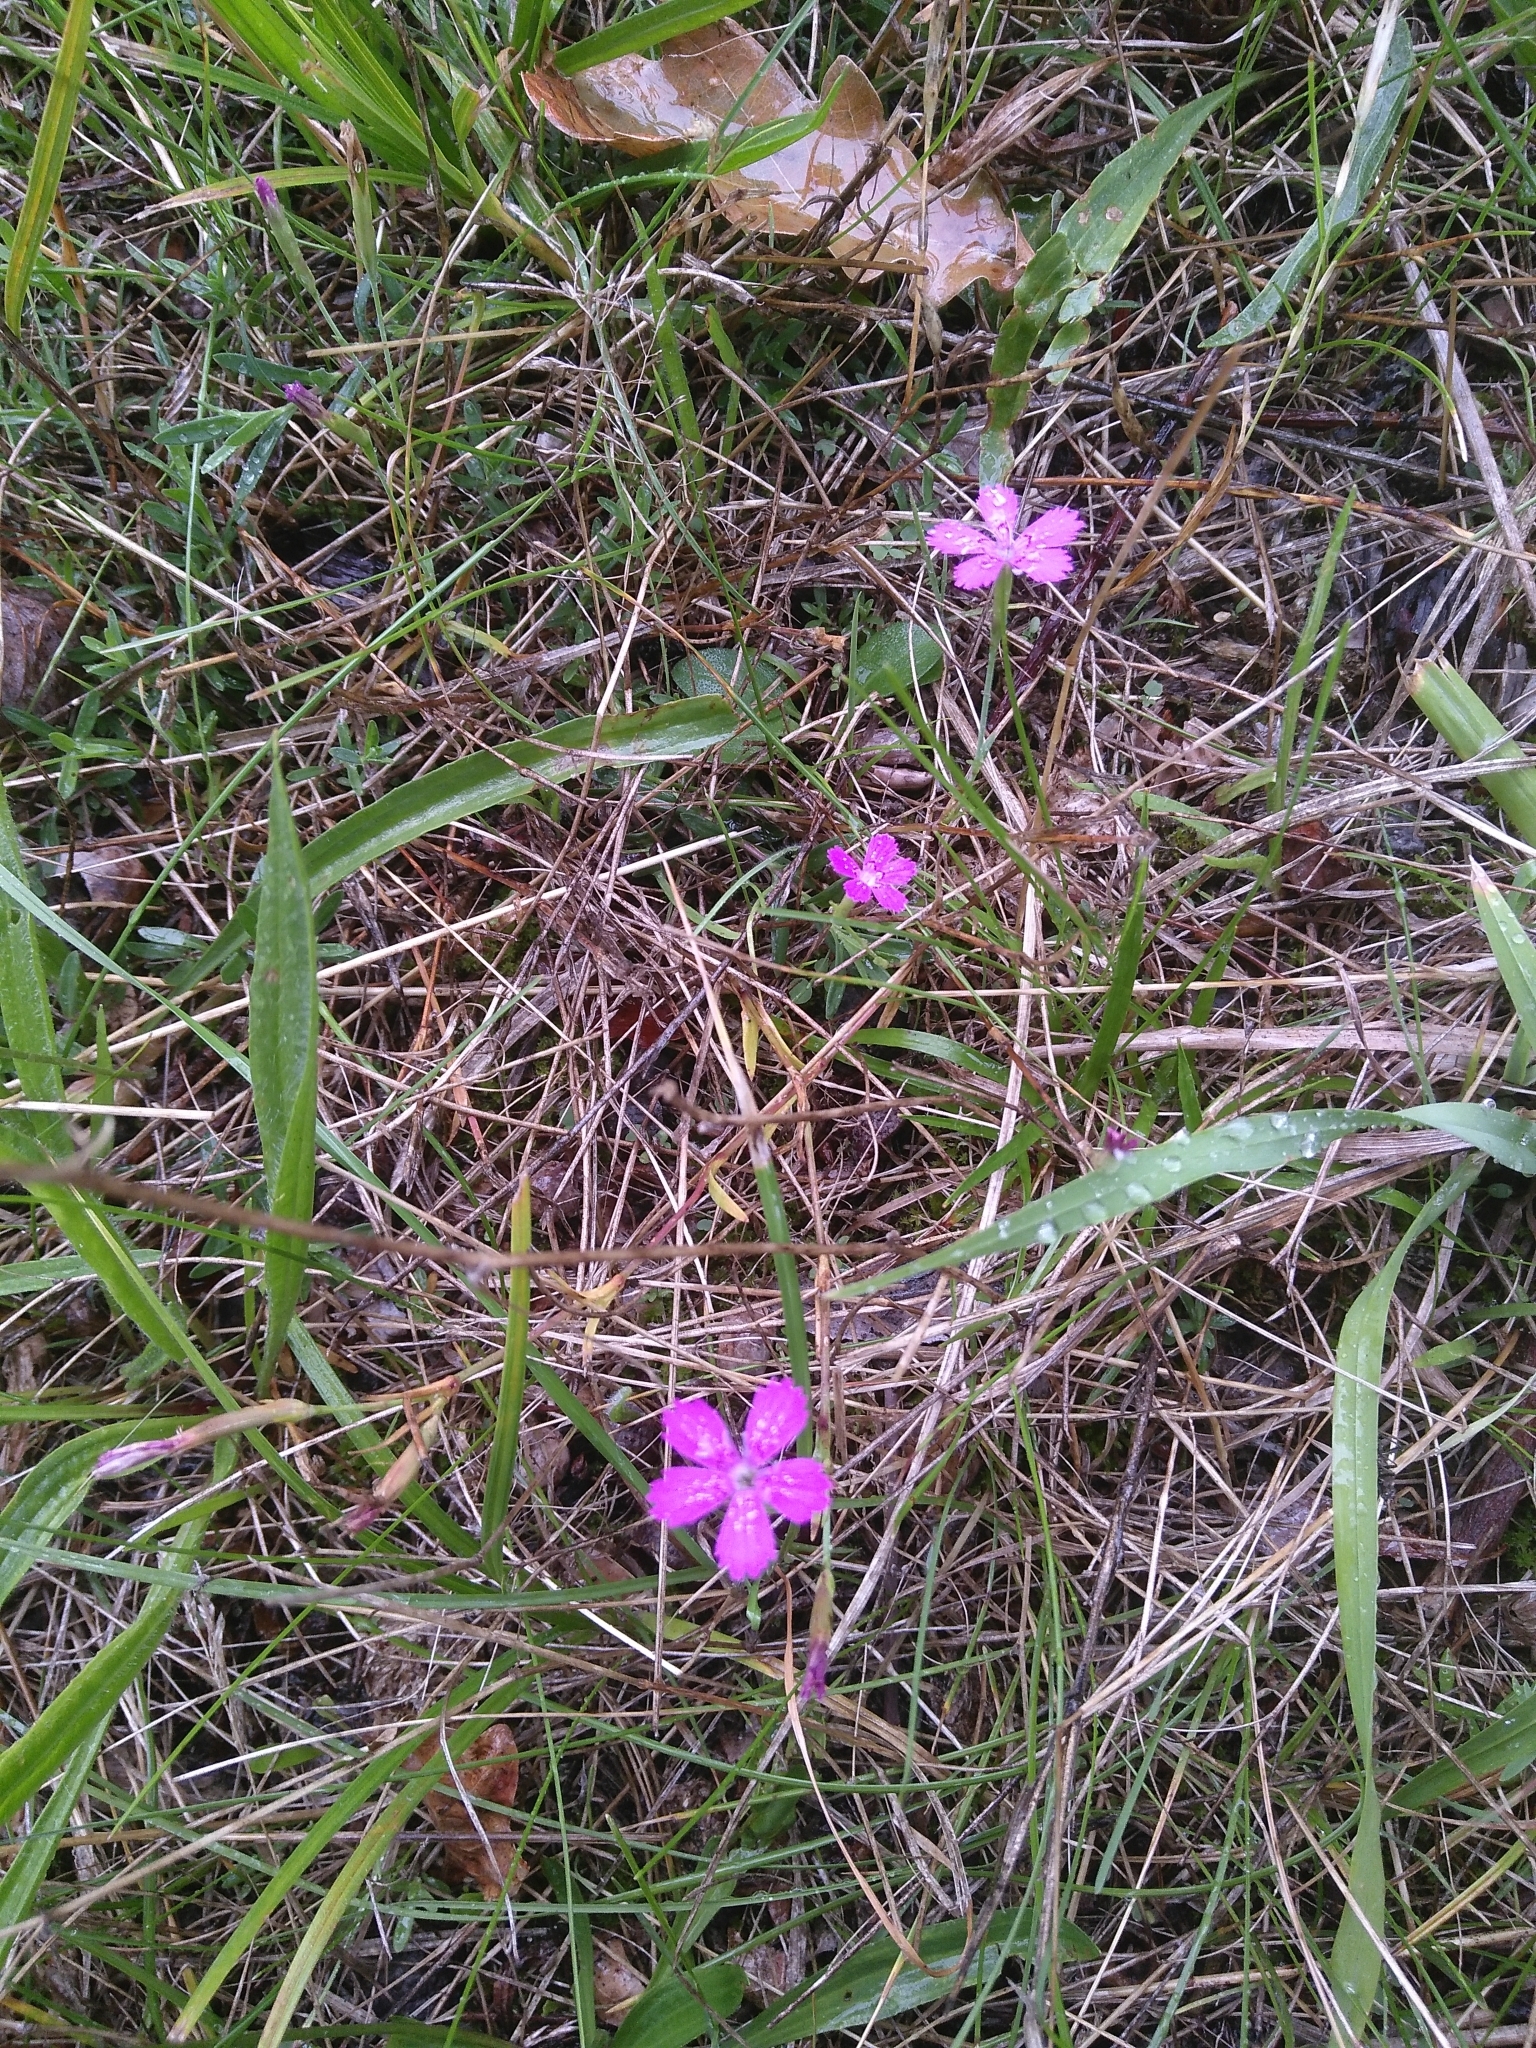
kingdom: Plantae
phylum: Tracheophyta
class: Magnoliopsida
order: Caryophyllales
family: Caryophyllaceae
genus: Dianthus
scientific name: Dianthus deltoides
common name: Maiden pink
